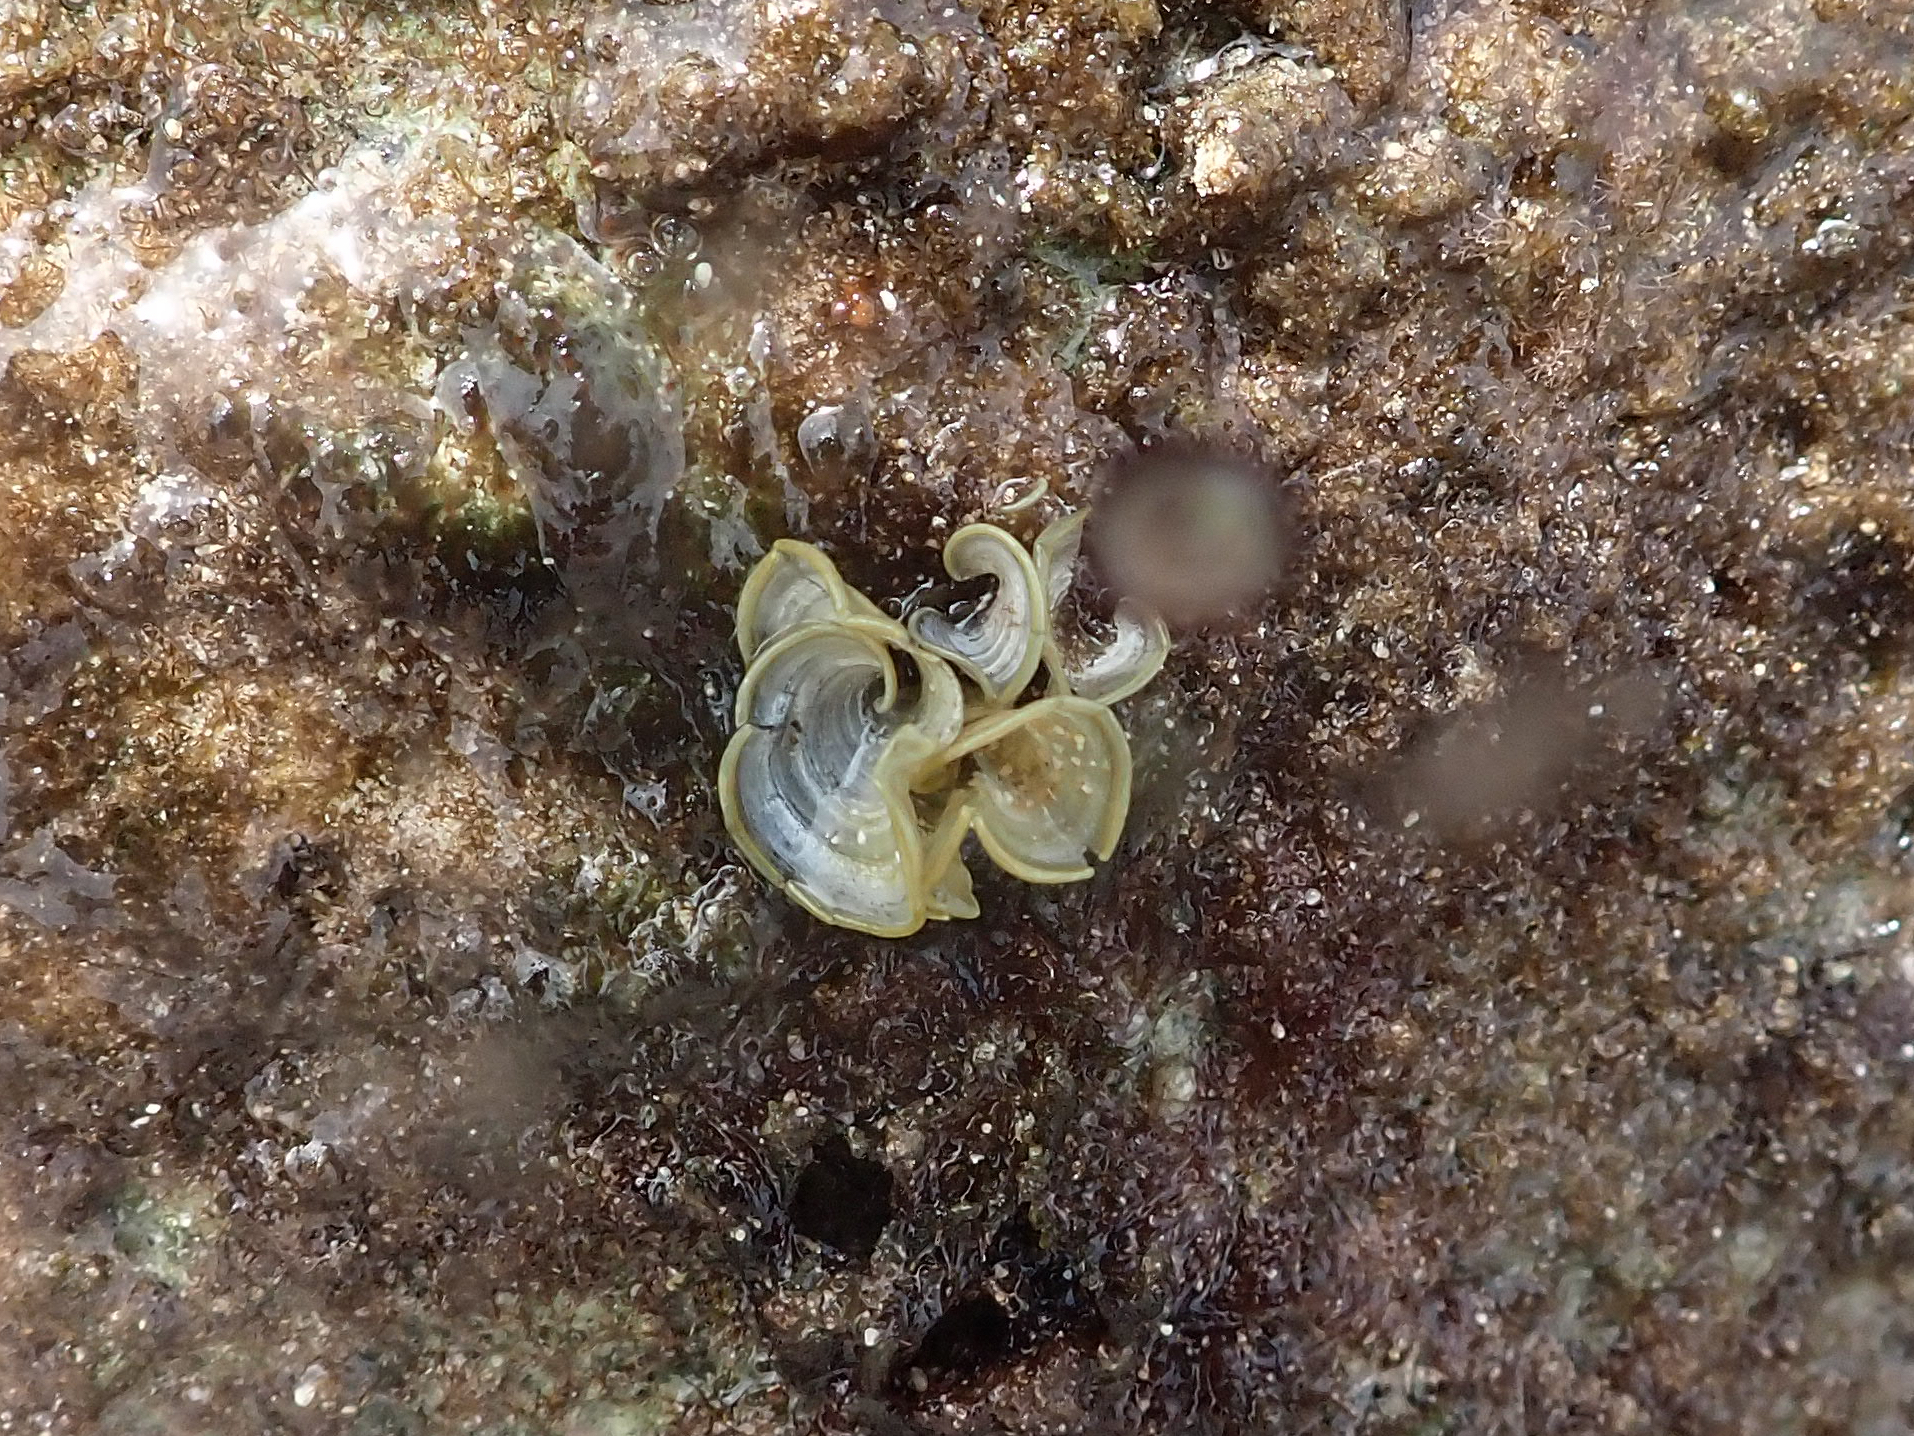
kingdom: Chromista
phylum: Ochrophyta
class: Phaeophyceae
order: Dictyotales
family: Dictyotaceae
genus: Padina
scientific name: Padina sanctae-crucis
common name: White scroll algae
